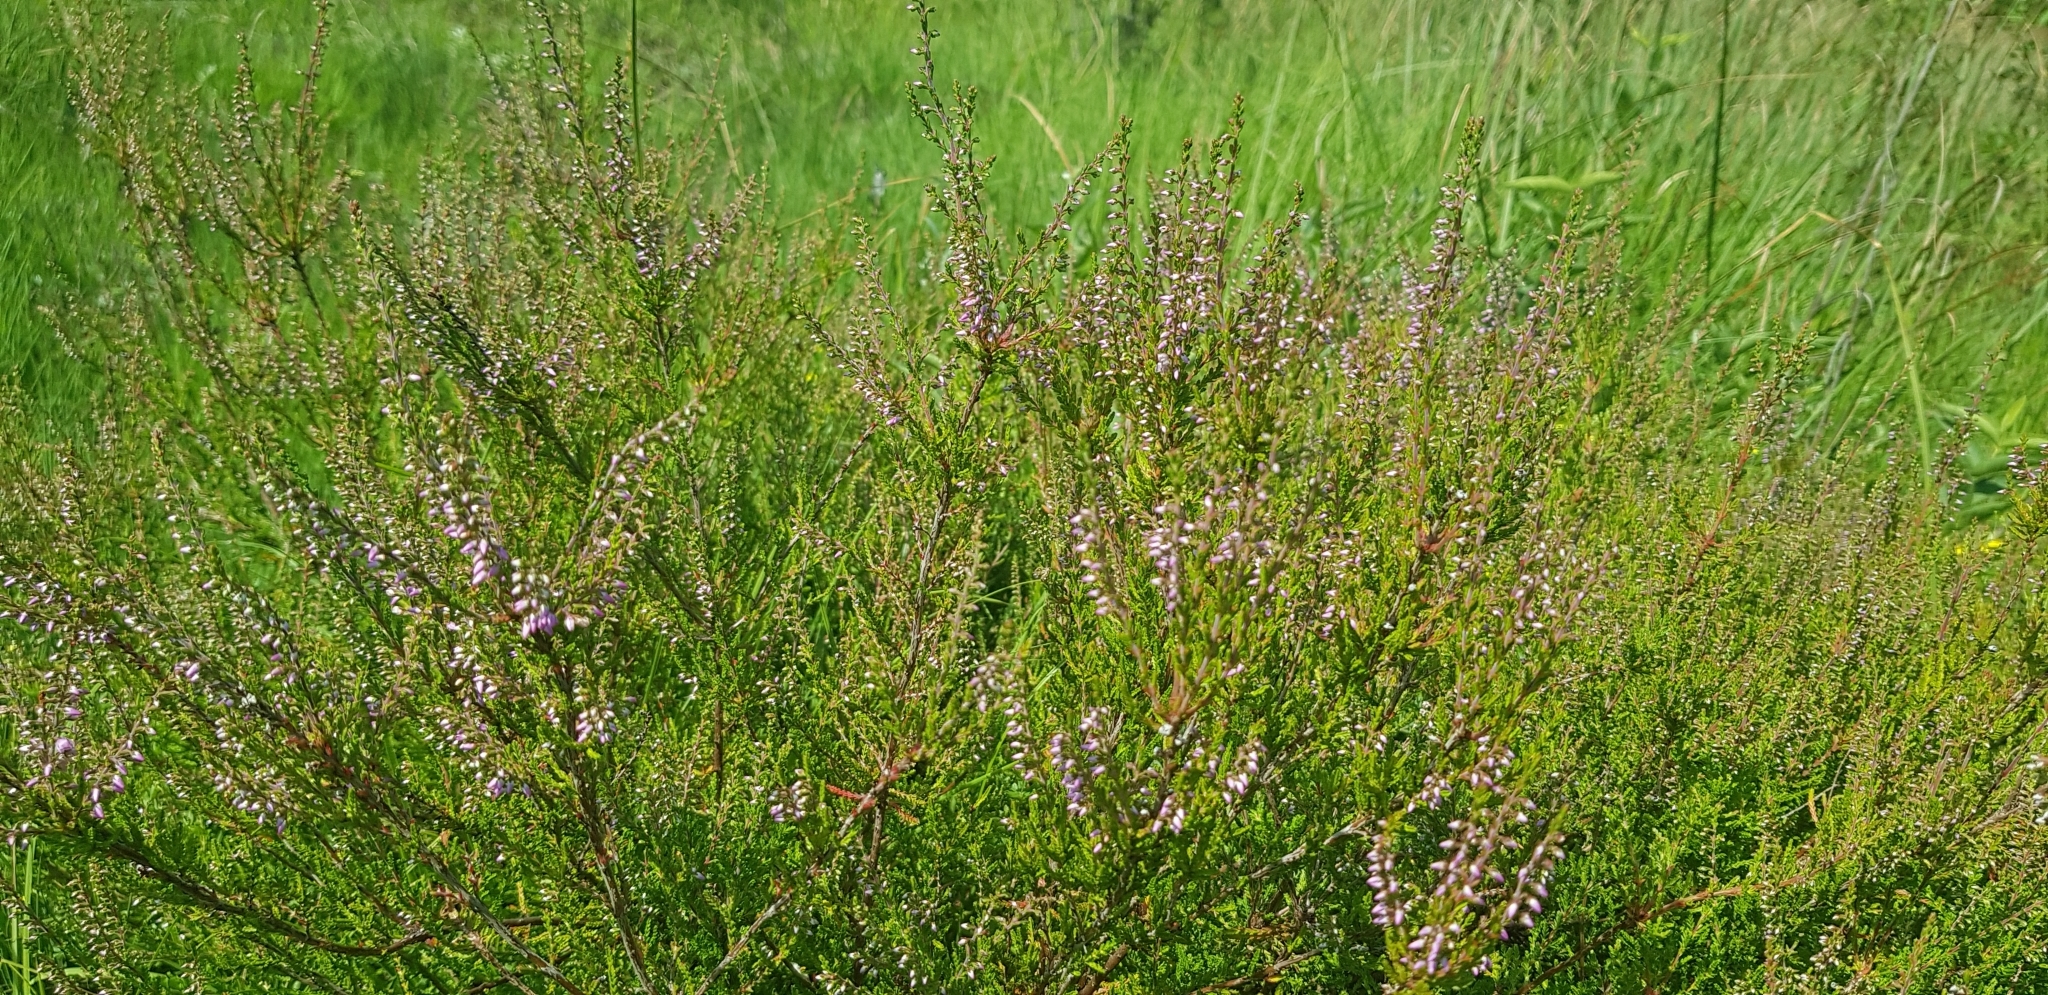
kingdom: Plantae
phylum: Tracheophyta
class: Magnoliopsida
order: Ericales
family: Ericaceae
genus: Calluna
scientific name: Calluna vulgaris
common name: Heather
